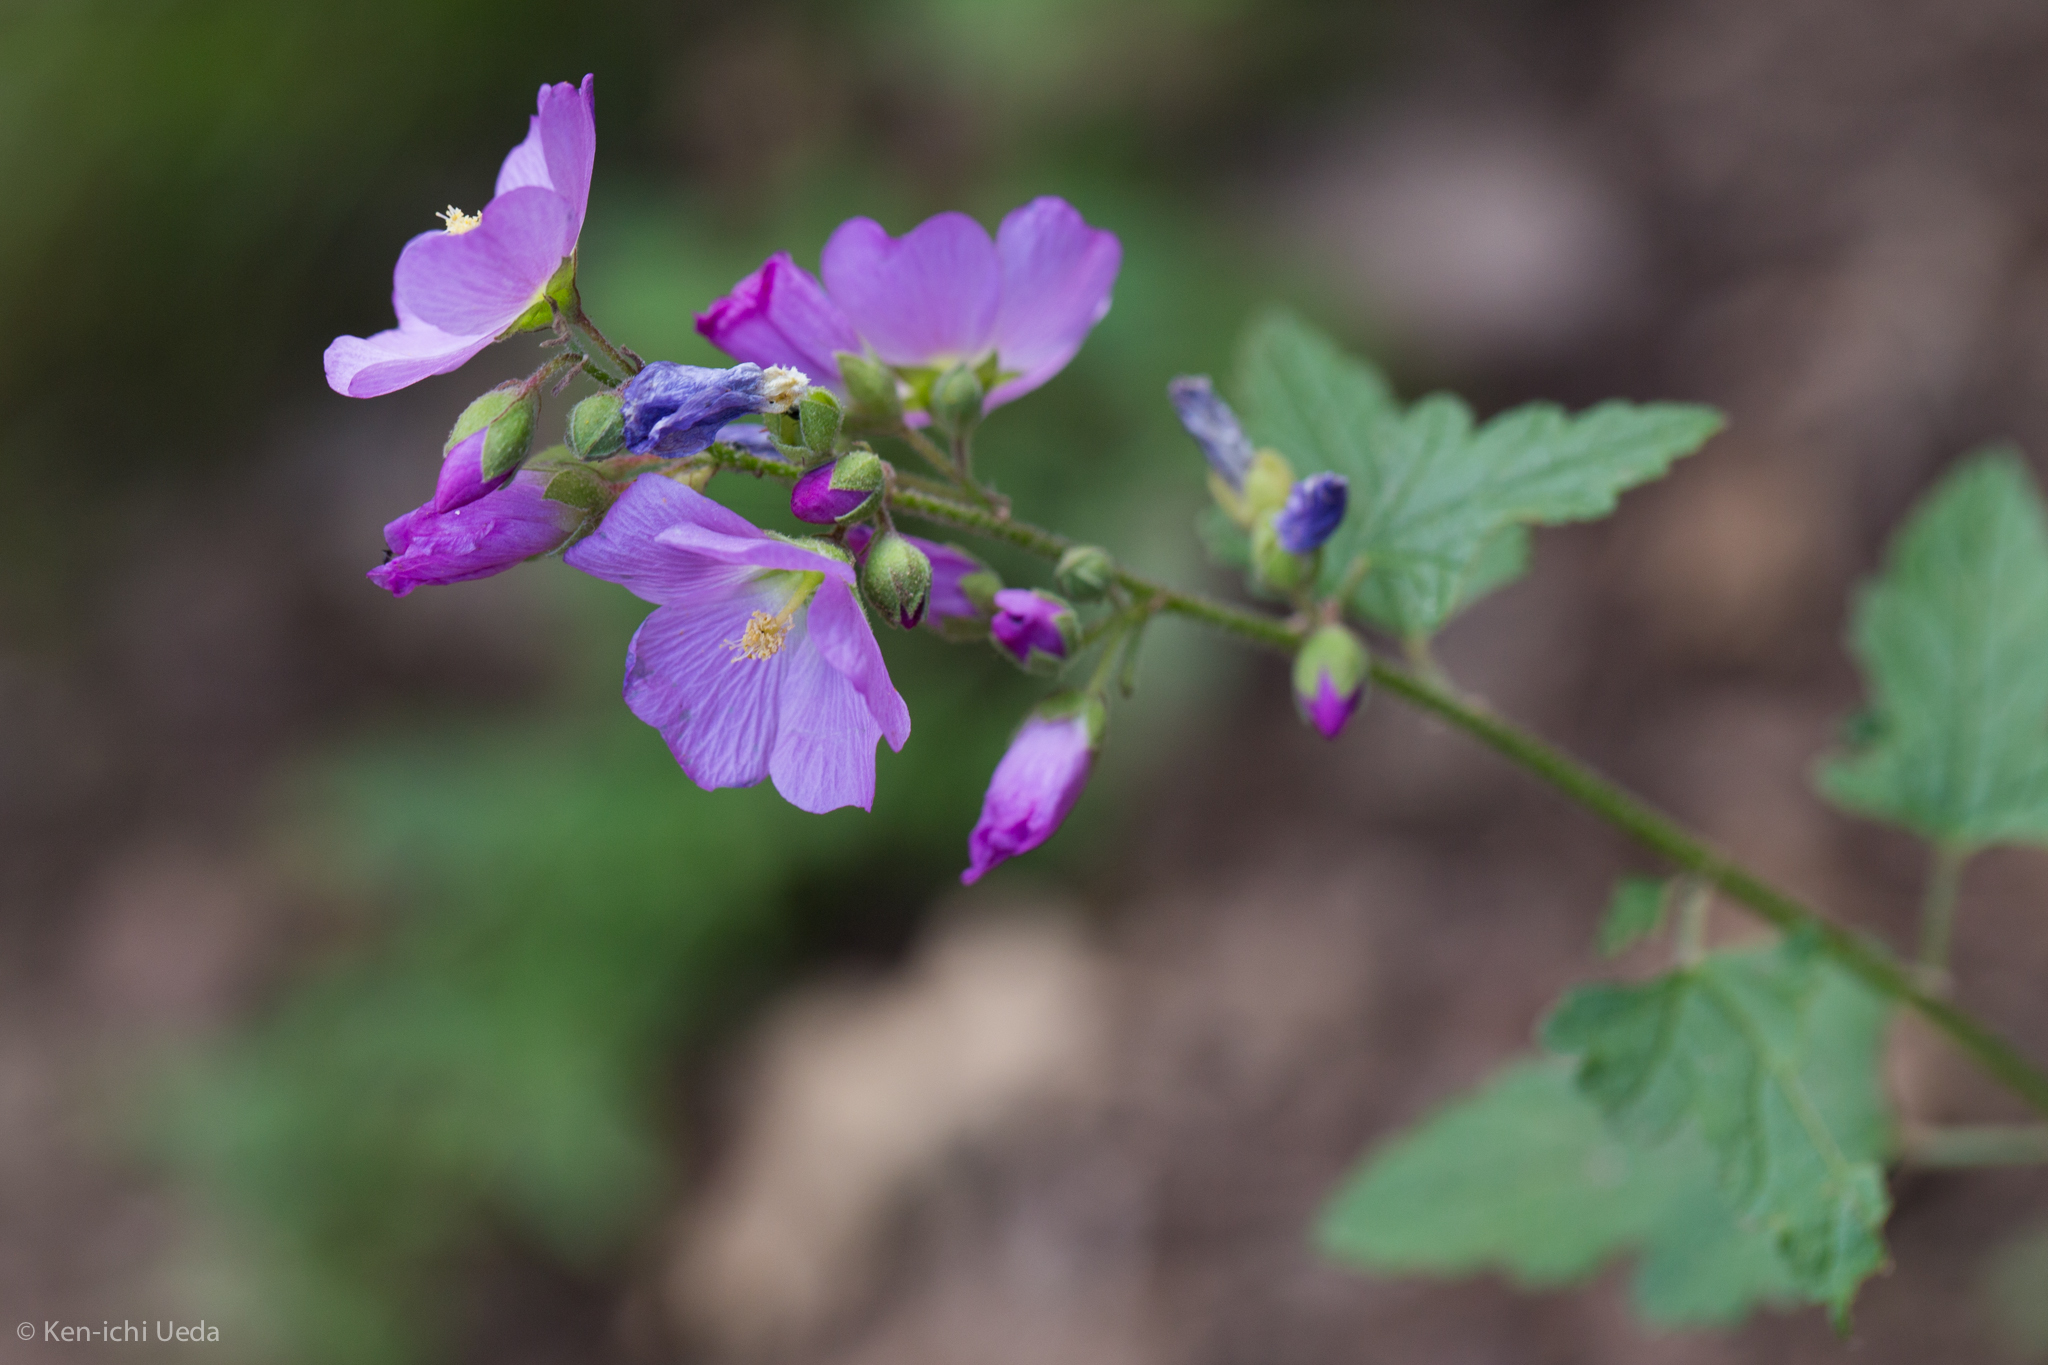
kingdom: Plantae
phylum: Tracheophyta
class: Magnoliopsida
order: Malvales
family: Malvaceae
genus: Sphaeralcea
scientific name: Sphaeralcea fendleri
